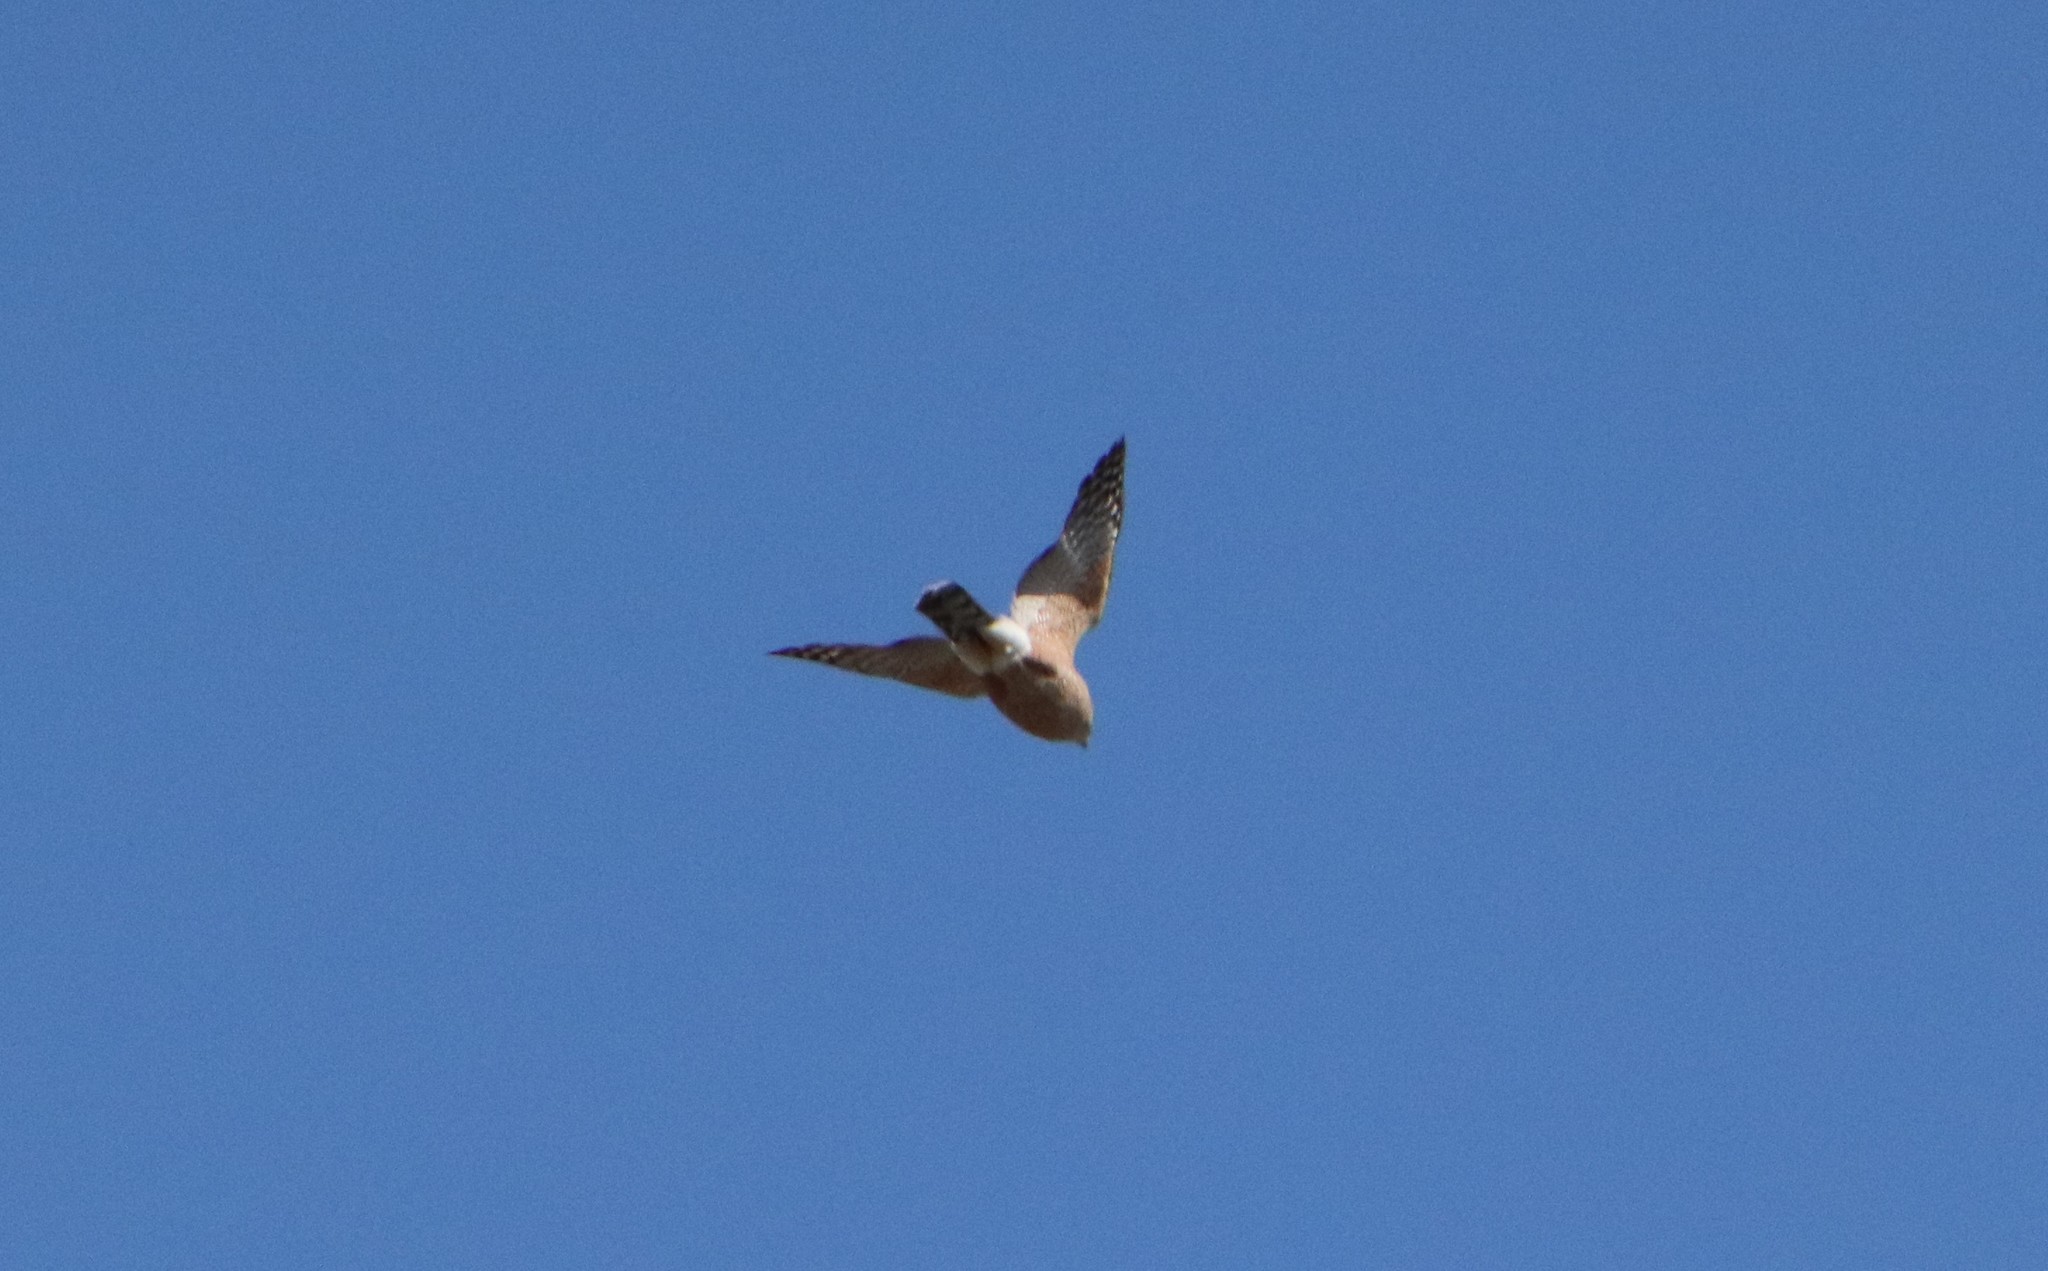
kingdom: Animalia
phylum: Chordata
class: Aves
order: Accipitriformes
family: Accipitridae
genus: Accipiter
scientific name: Accipiter cooperii
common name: Cooper's hawk
